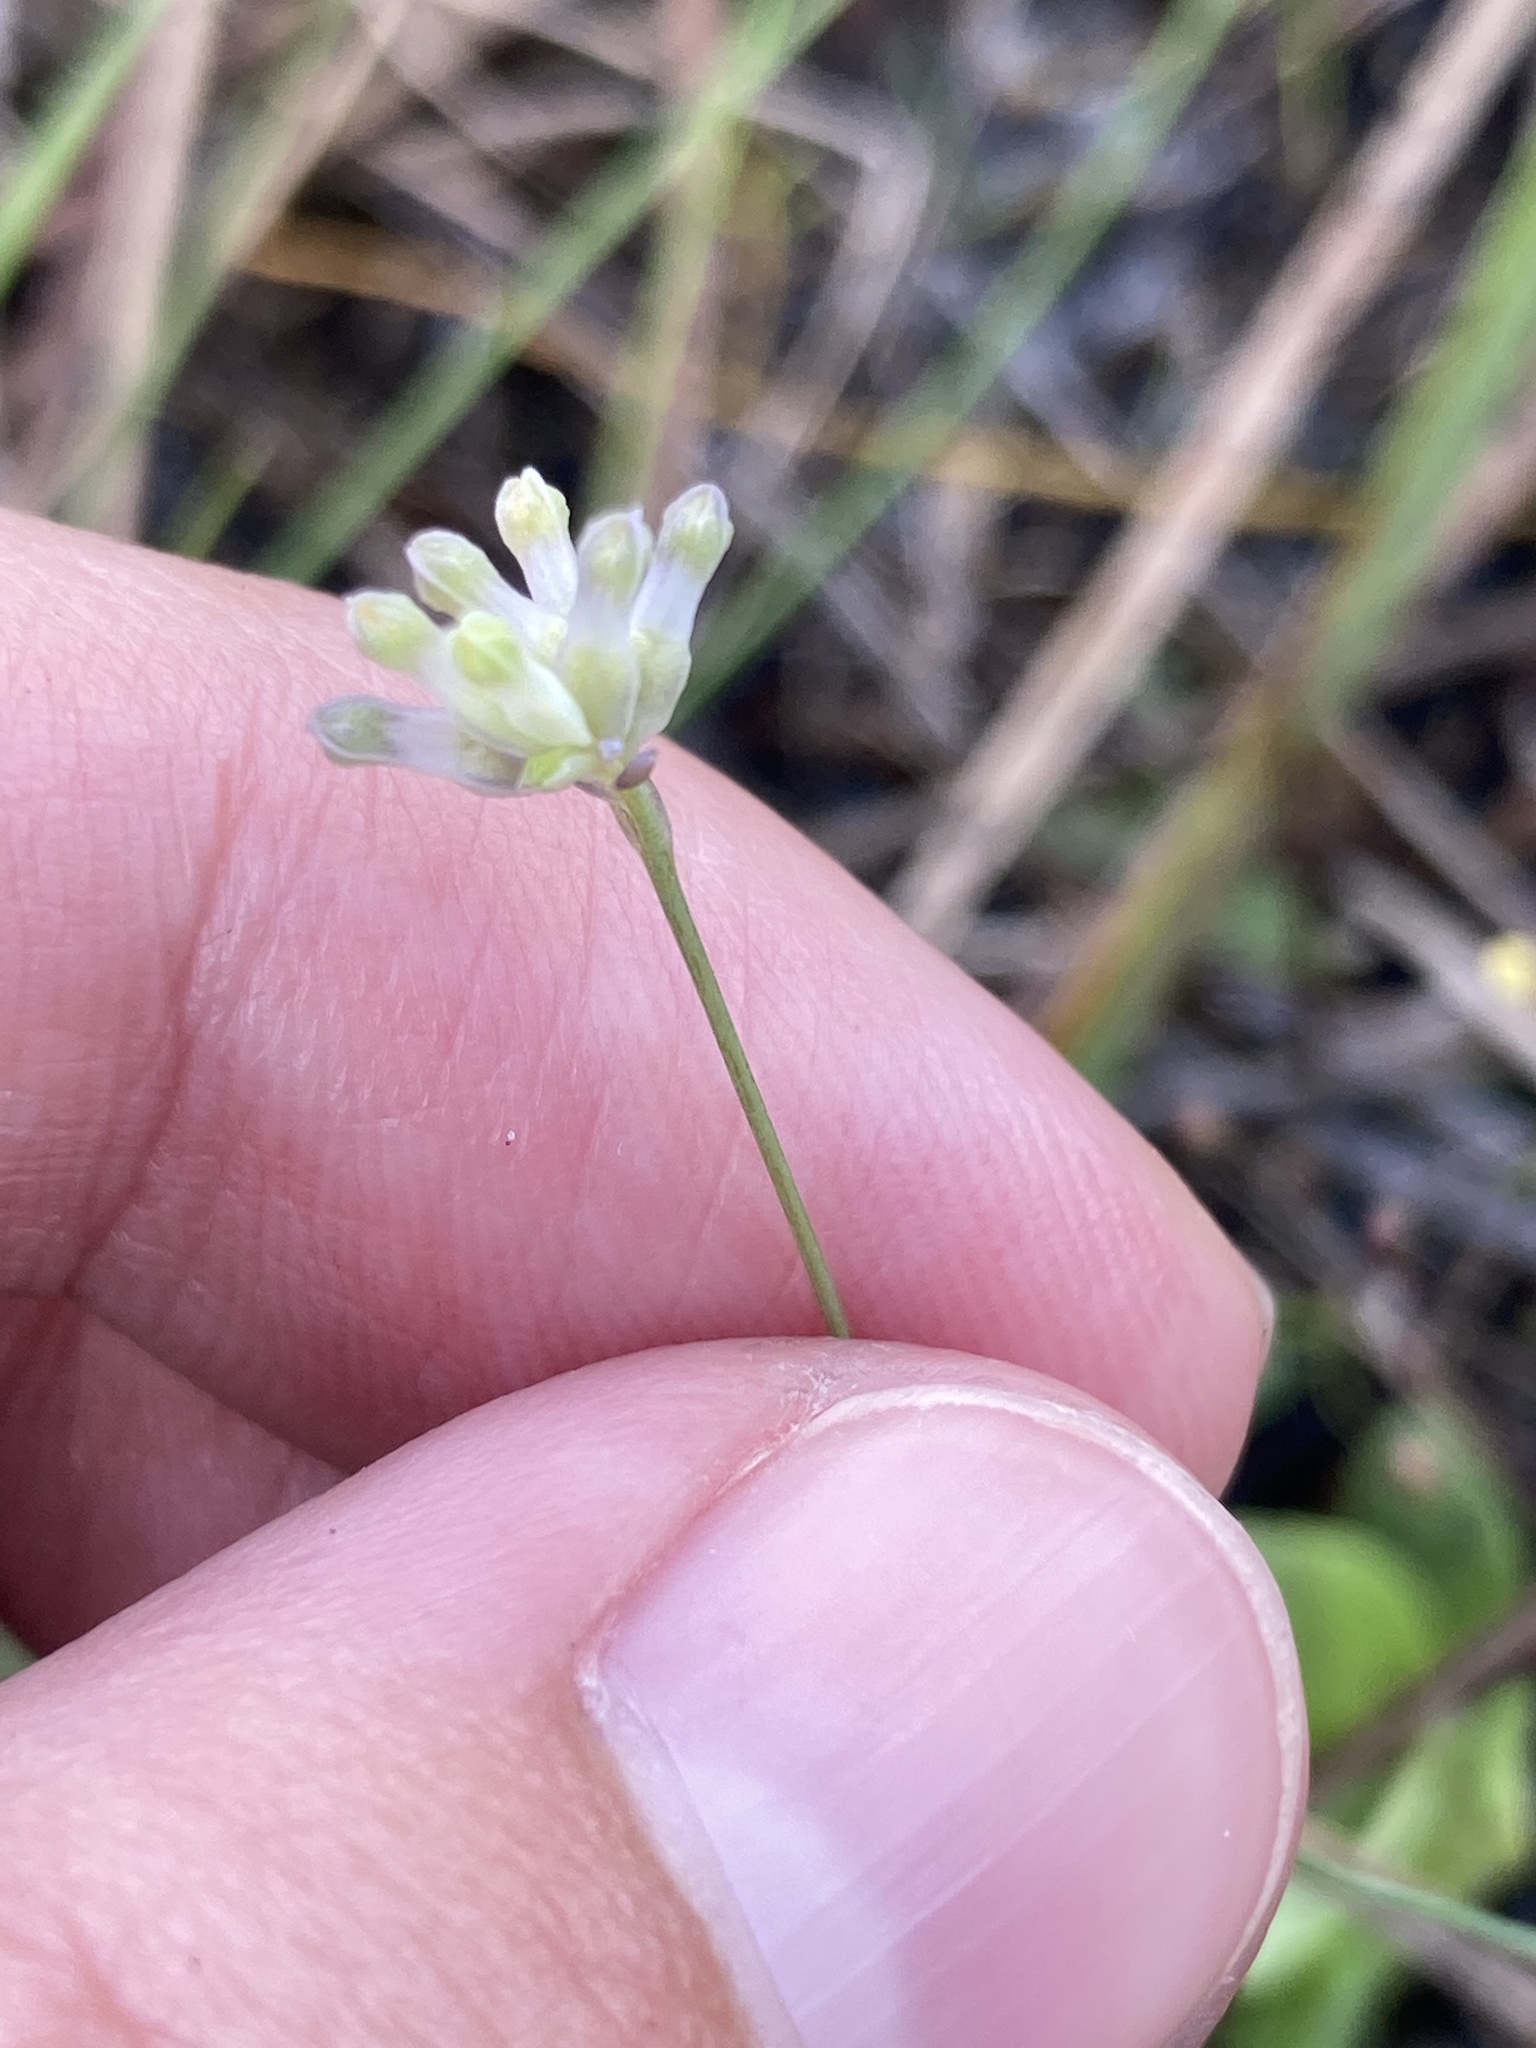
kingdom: Plantae
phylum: Tracheophyta
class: Liliopsida
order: Dioscoreales
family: Burmanniaceae
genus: Burmannia
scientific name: Burmannia capitata
